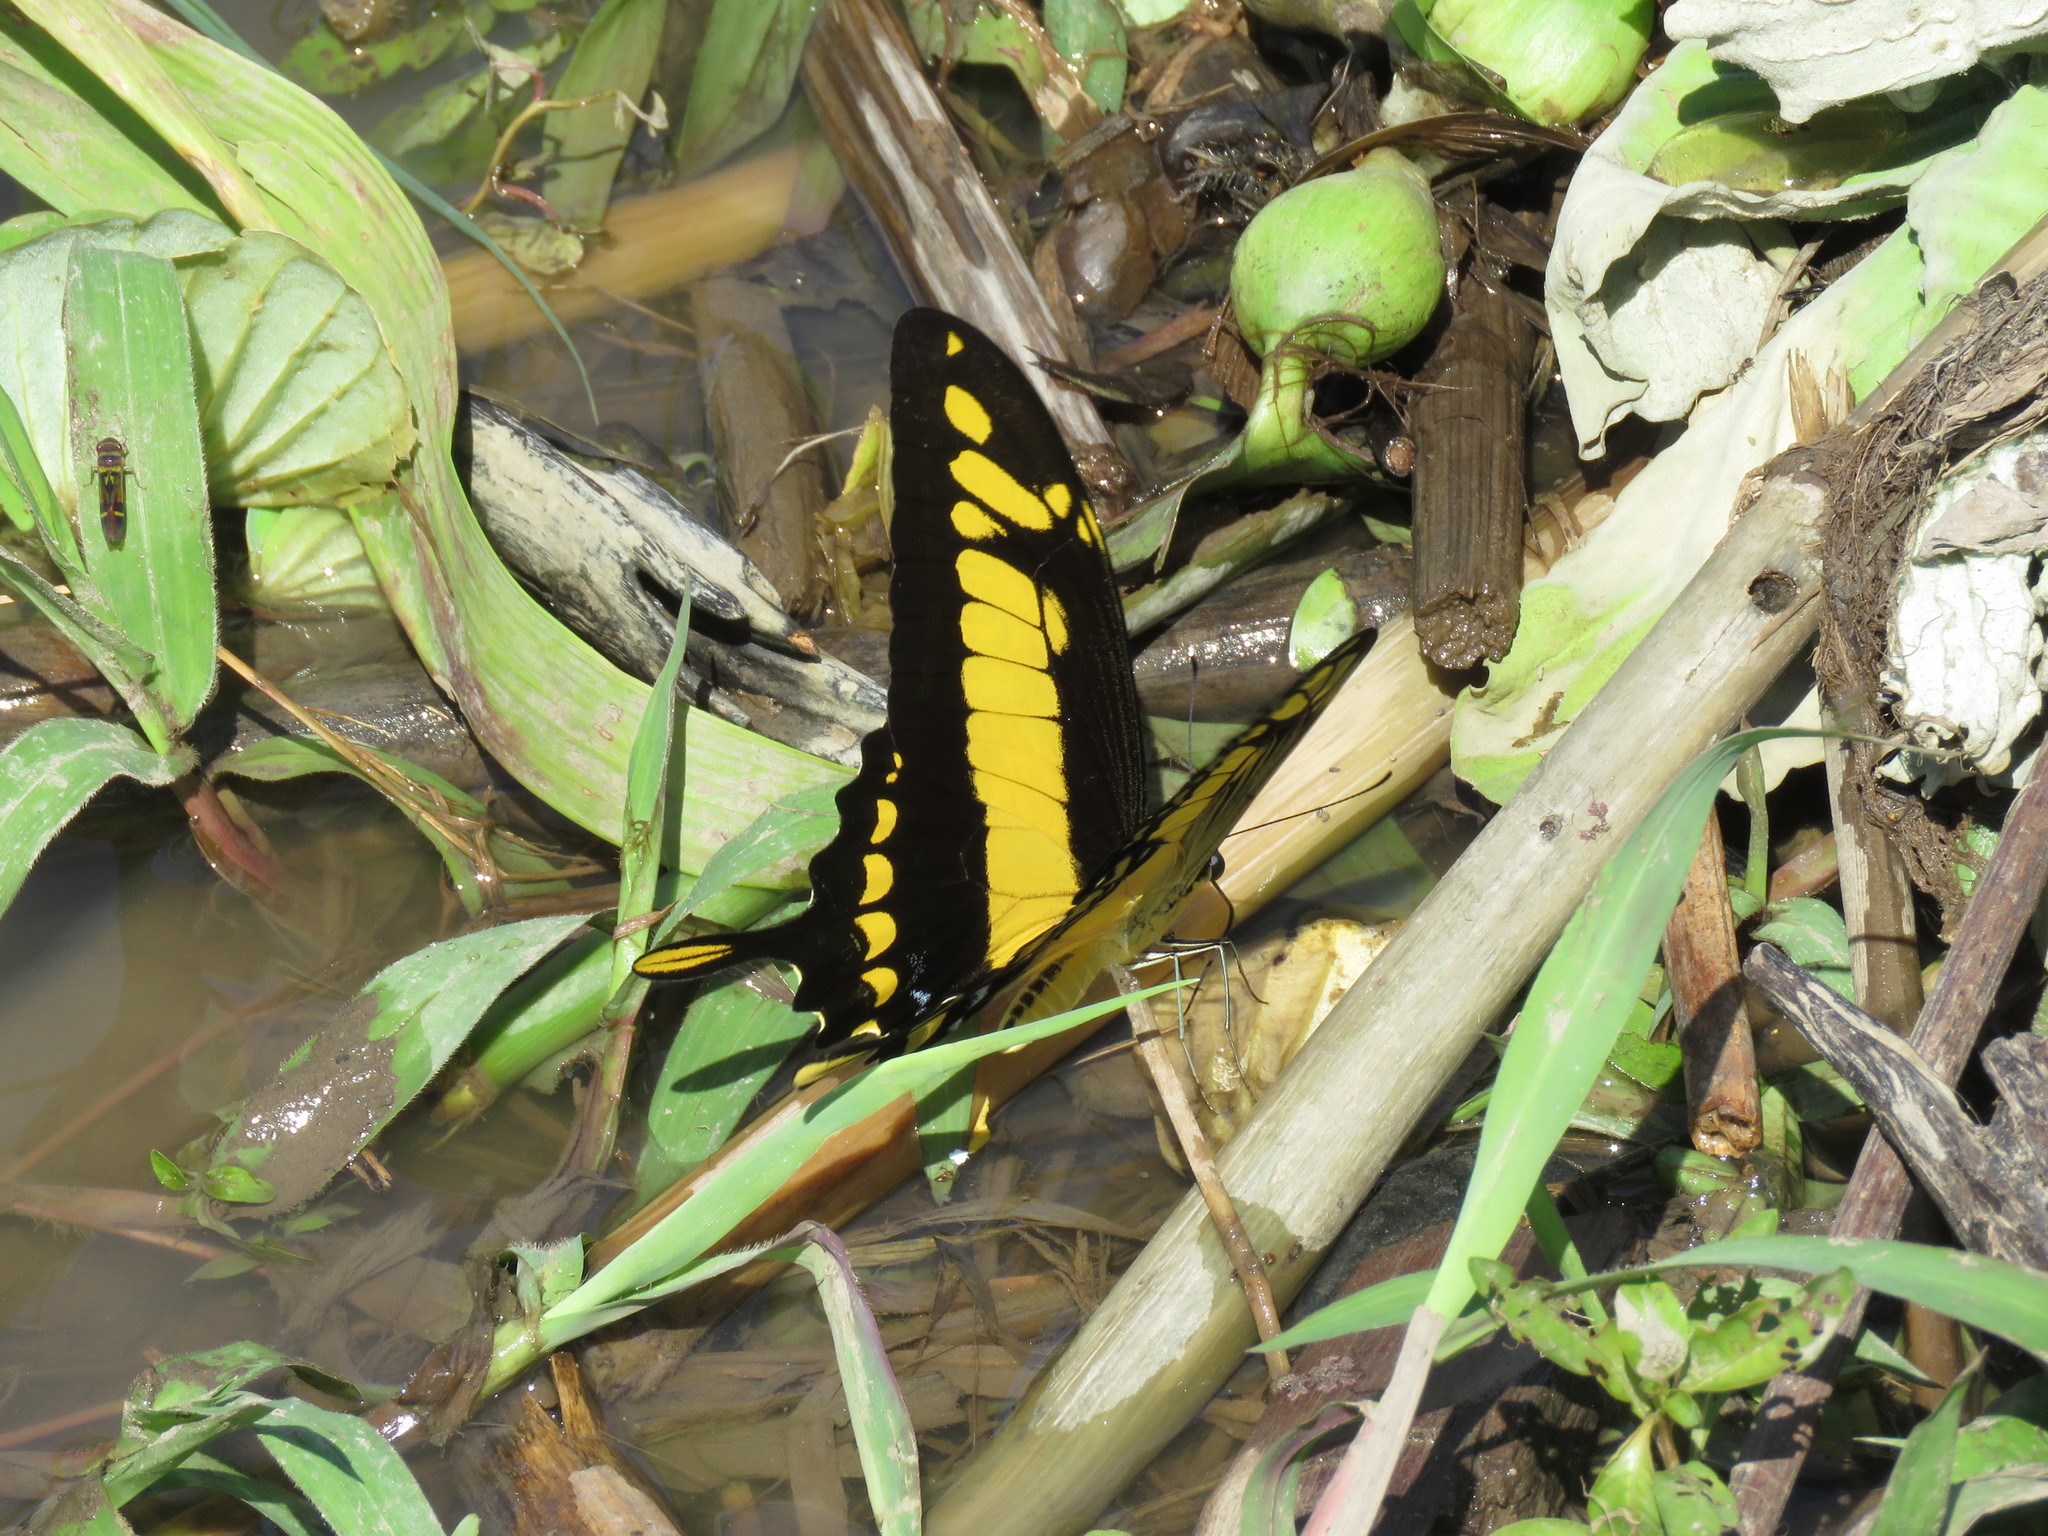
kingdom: Animalia
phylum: Arthropoda
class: Insecta
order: Lepidoptera
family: Papilionidae
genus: Papilio
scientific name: Papilio thoas
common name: King swallowtail
